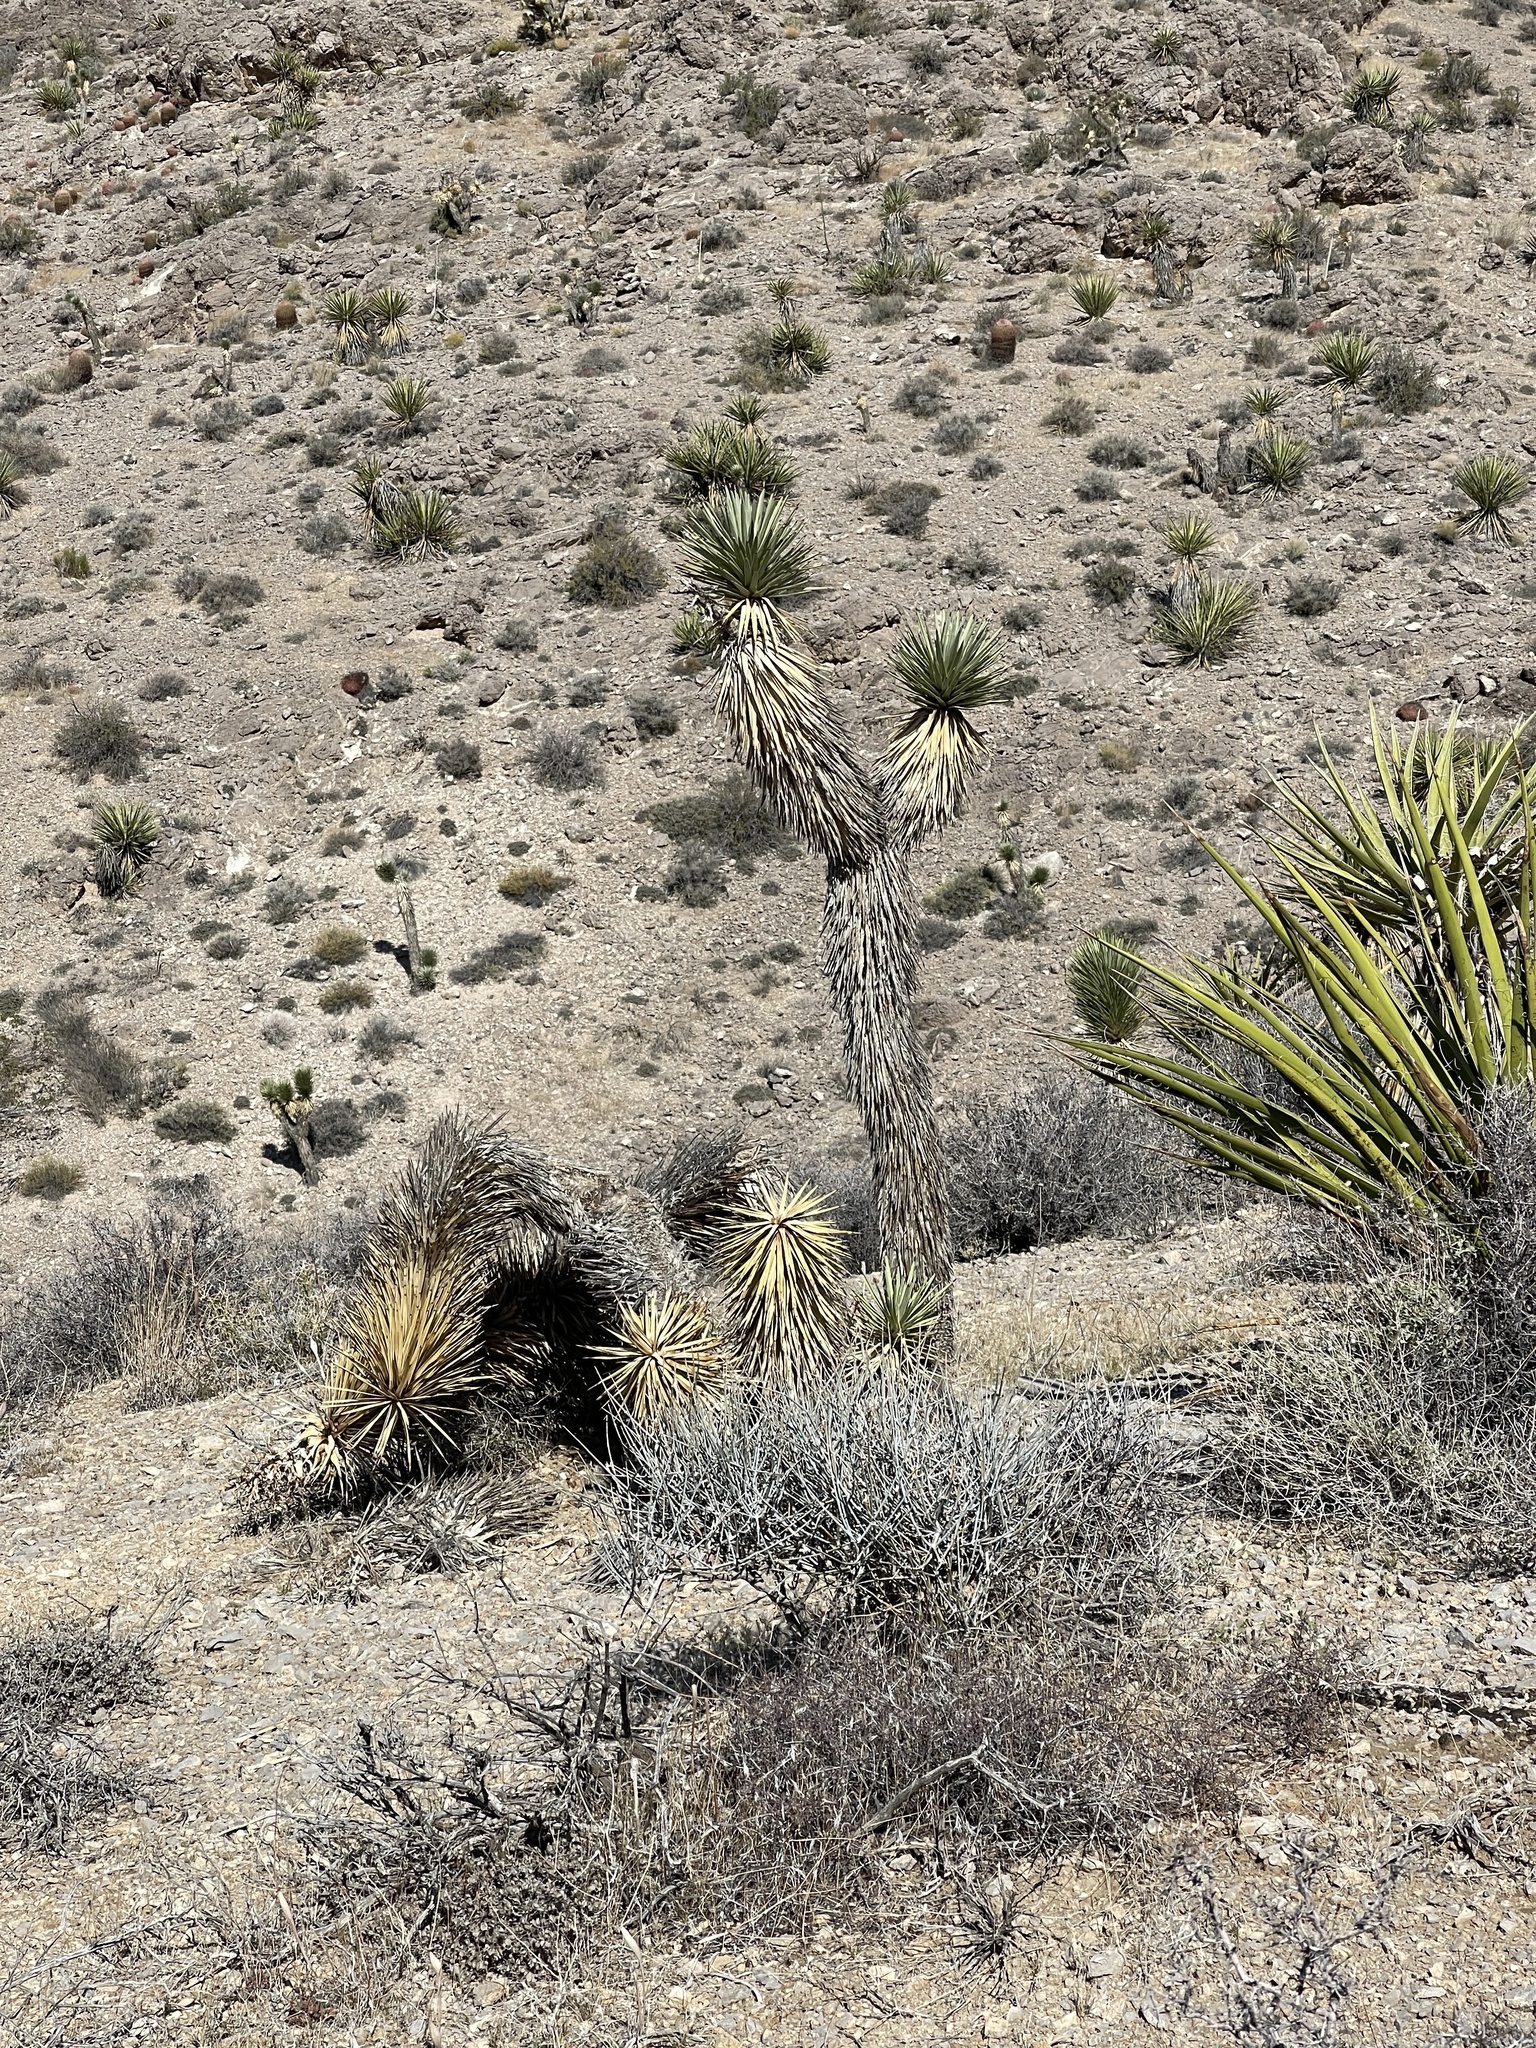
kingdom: Plantae
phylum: Tracheophyta
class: Liliopsida
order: Asparagales
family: Asparagaceae
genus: Yucca
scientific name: Yucca brevifolia
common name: Joshua tree
